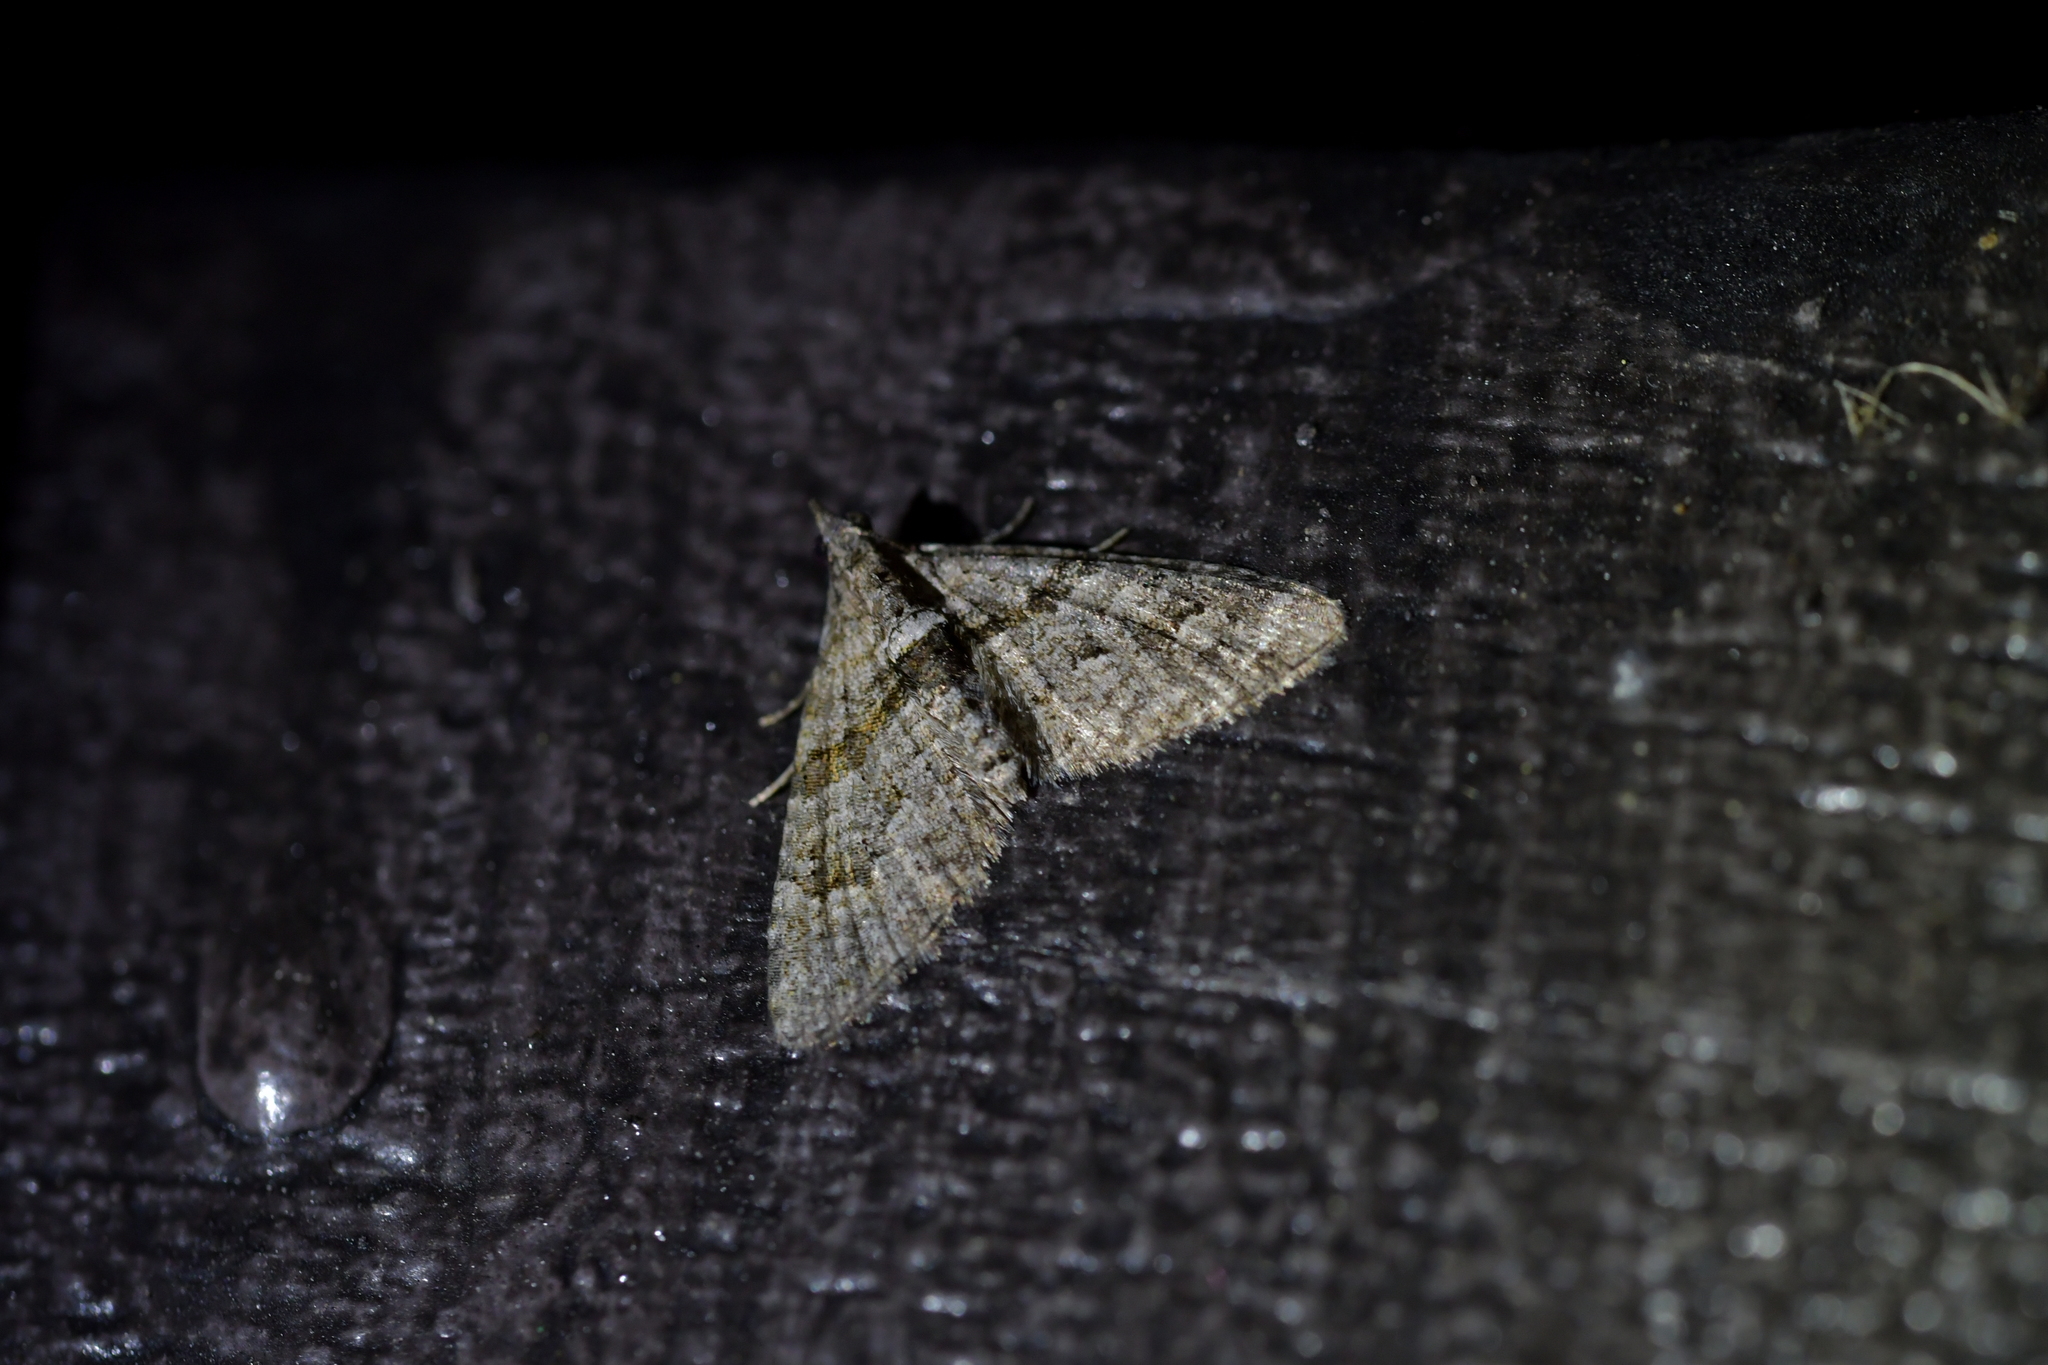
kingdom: Animalia
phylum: Arthropoda
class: Insecta
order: Lepidoptera
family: Geometridae
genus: Phrissogonus
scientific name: Phrissogonus laticostata
